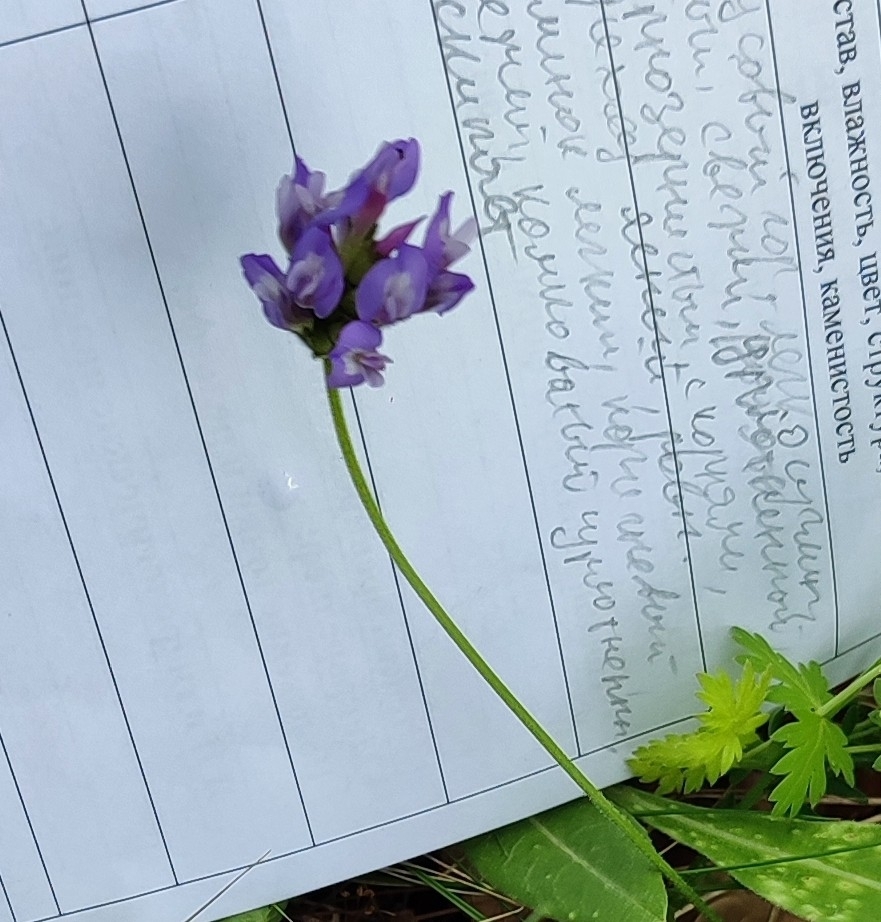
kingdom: Plantae
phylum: Tracheophyta
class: Magnoliopsida
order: Fabales
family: Fabaceae
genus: Astragalus
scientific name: Astragalus danicus
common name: Purple milk-vetch
